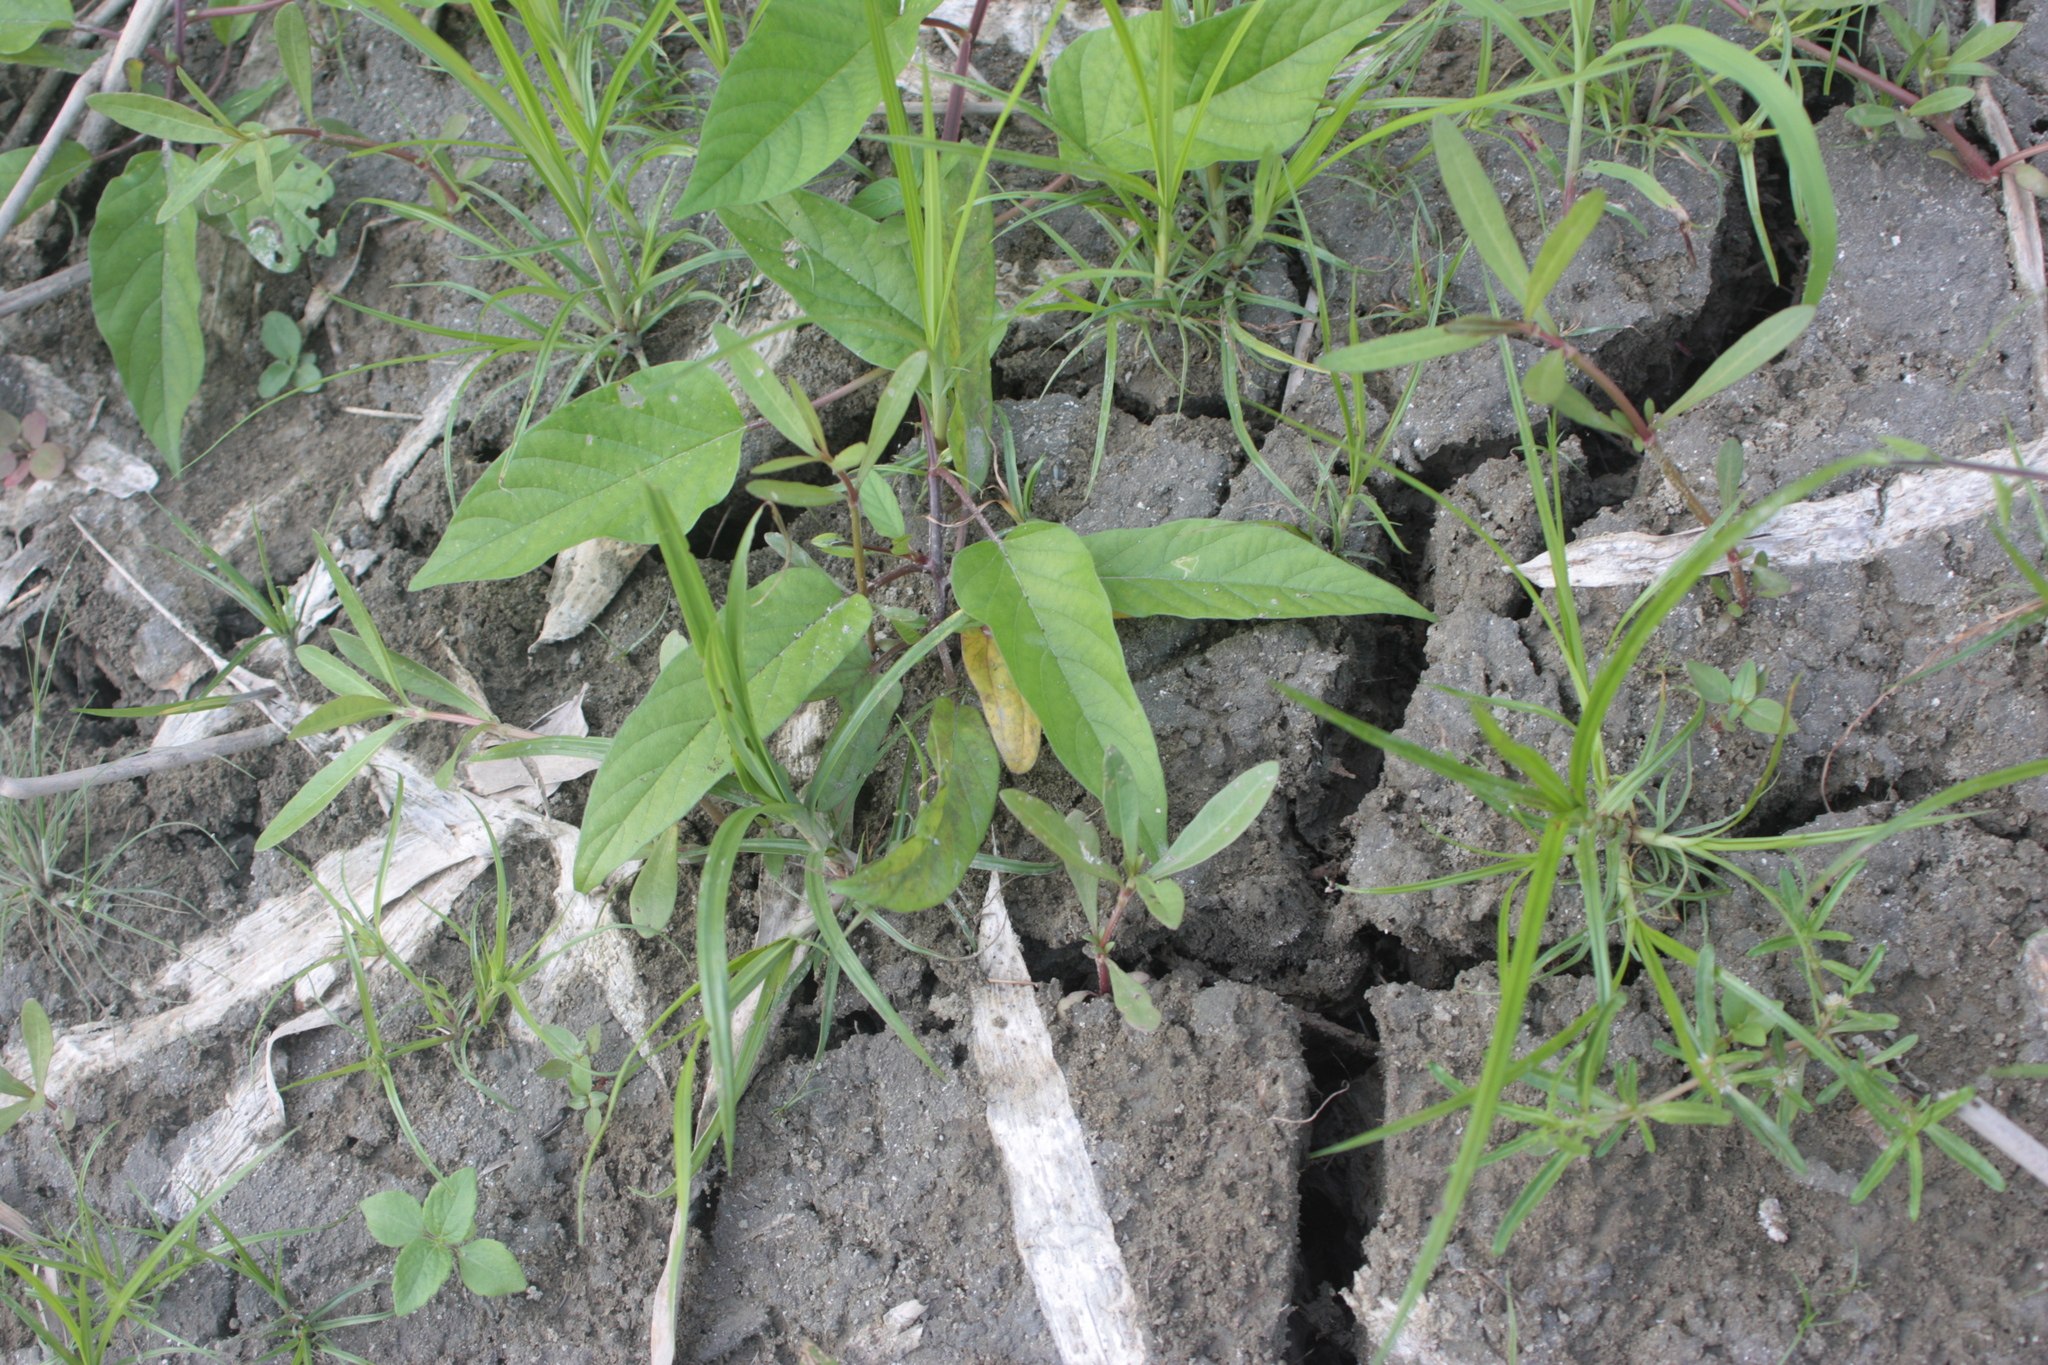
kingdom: Plantae
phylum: Tracheophyta
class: Magnoliopsida
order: Solanales
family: Convolvulaceae
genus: Operculina
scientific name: Operculina turpethum
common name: Transparent wood-rose
